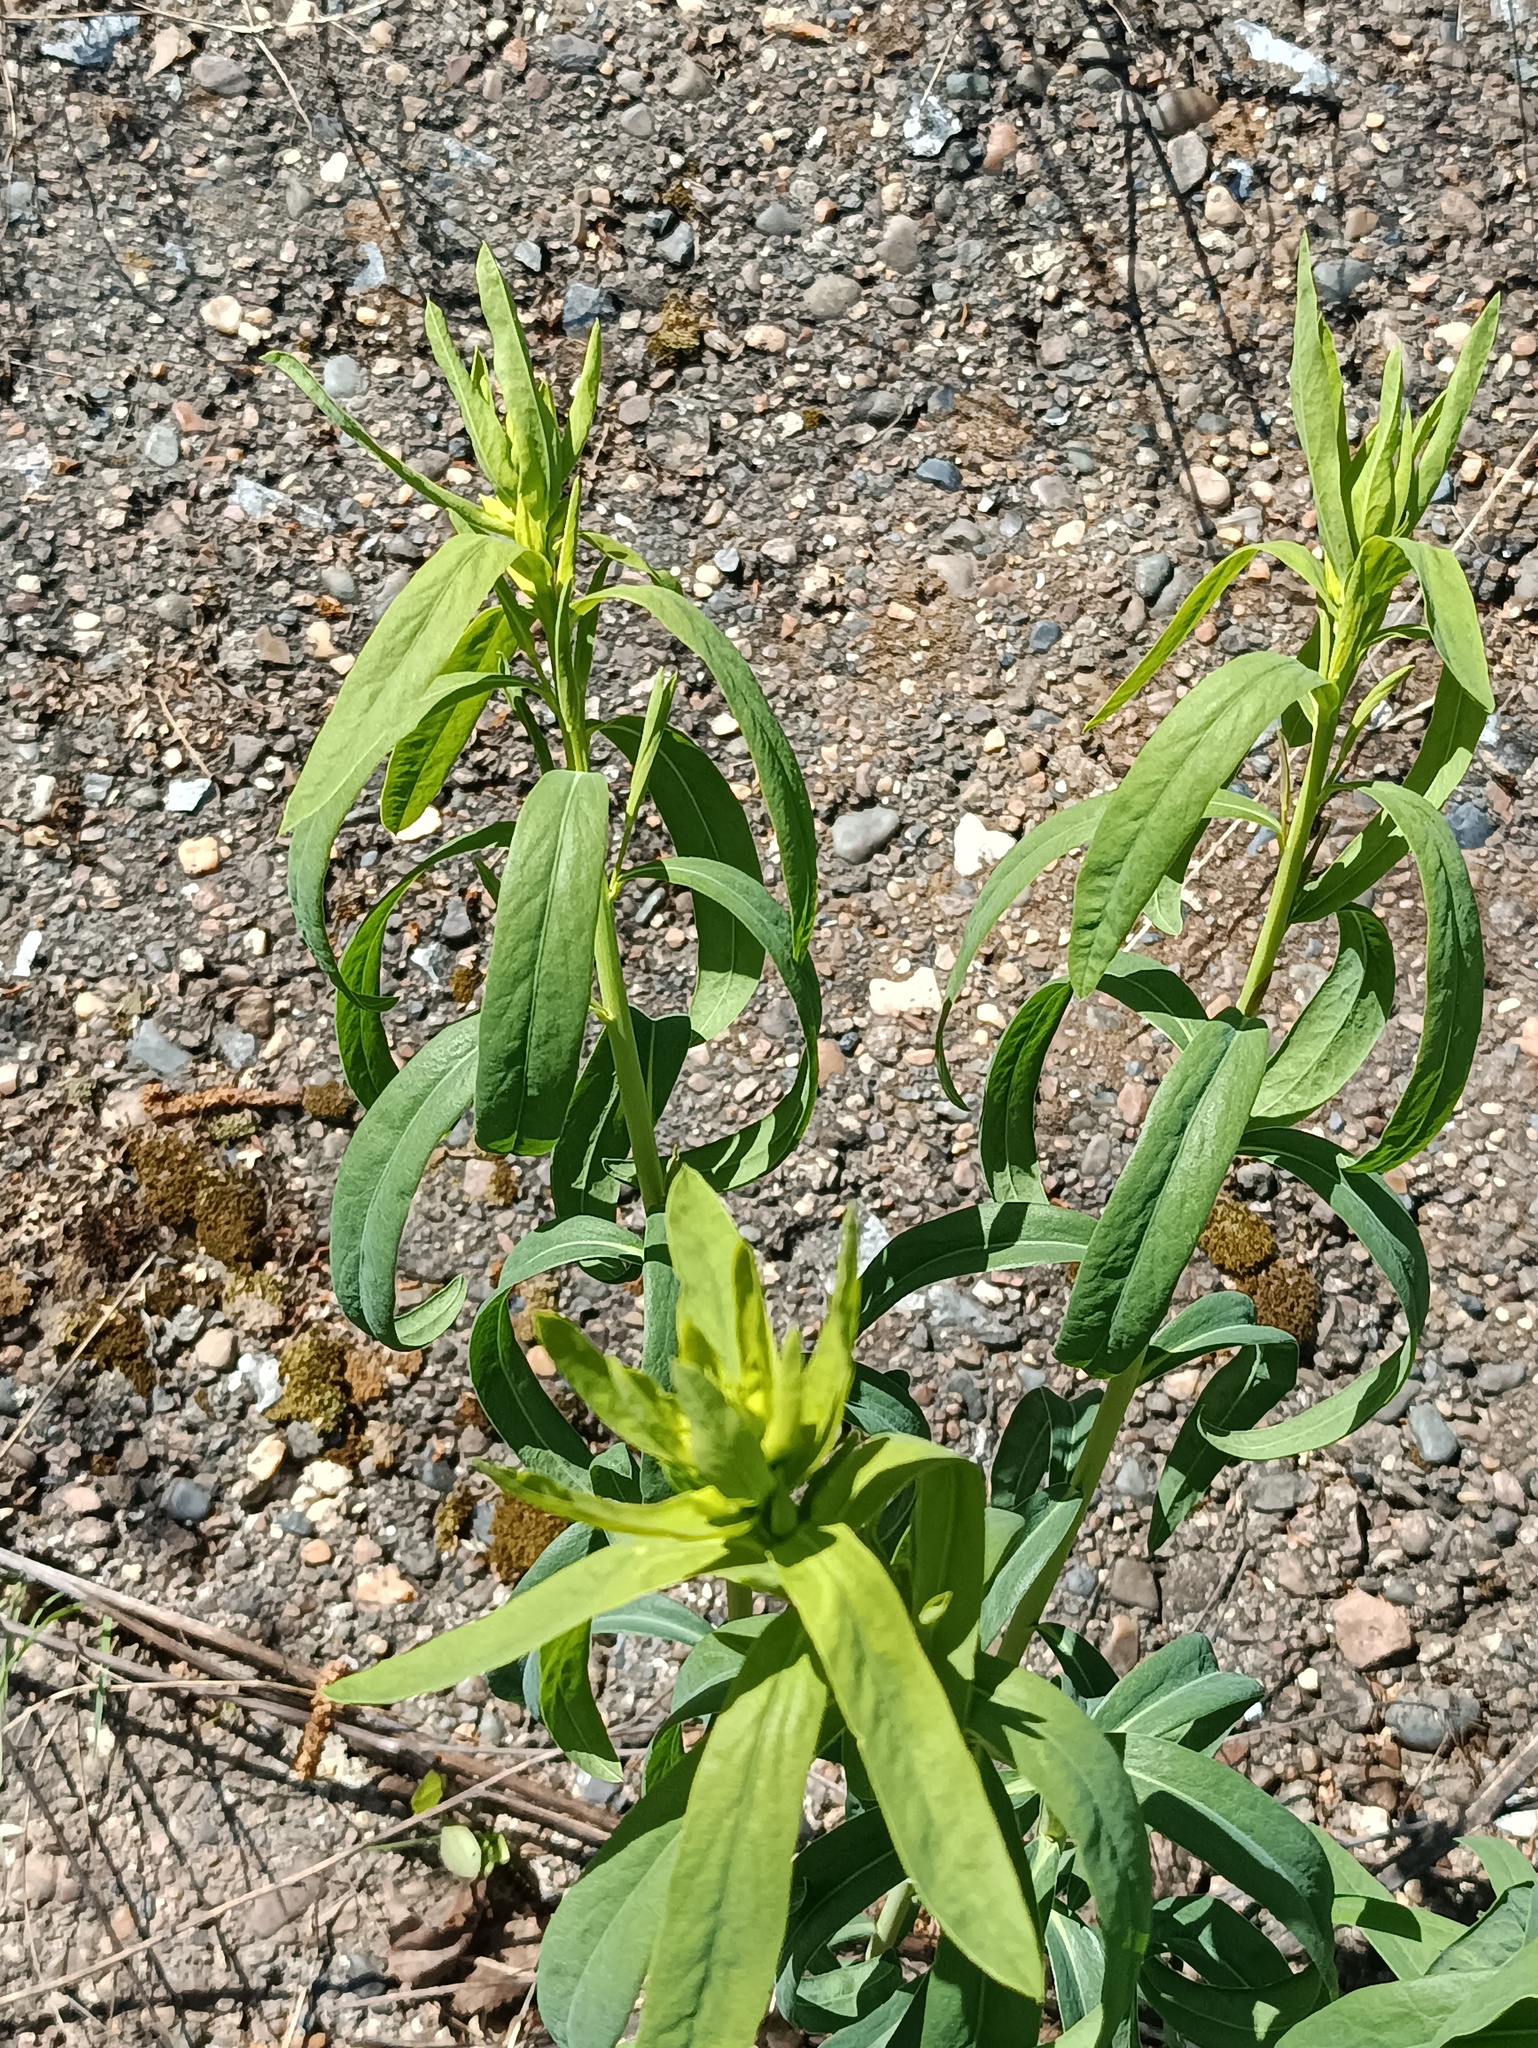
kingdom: Plantae
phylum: Tracheophyta
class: Magnoliopsida
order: Malpighiales
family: Euphorbiaceae
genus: Euphorbia
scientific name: Euphorbia virgata
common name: Leafy spurge
